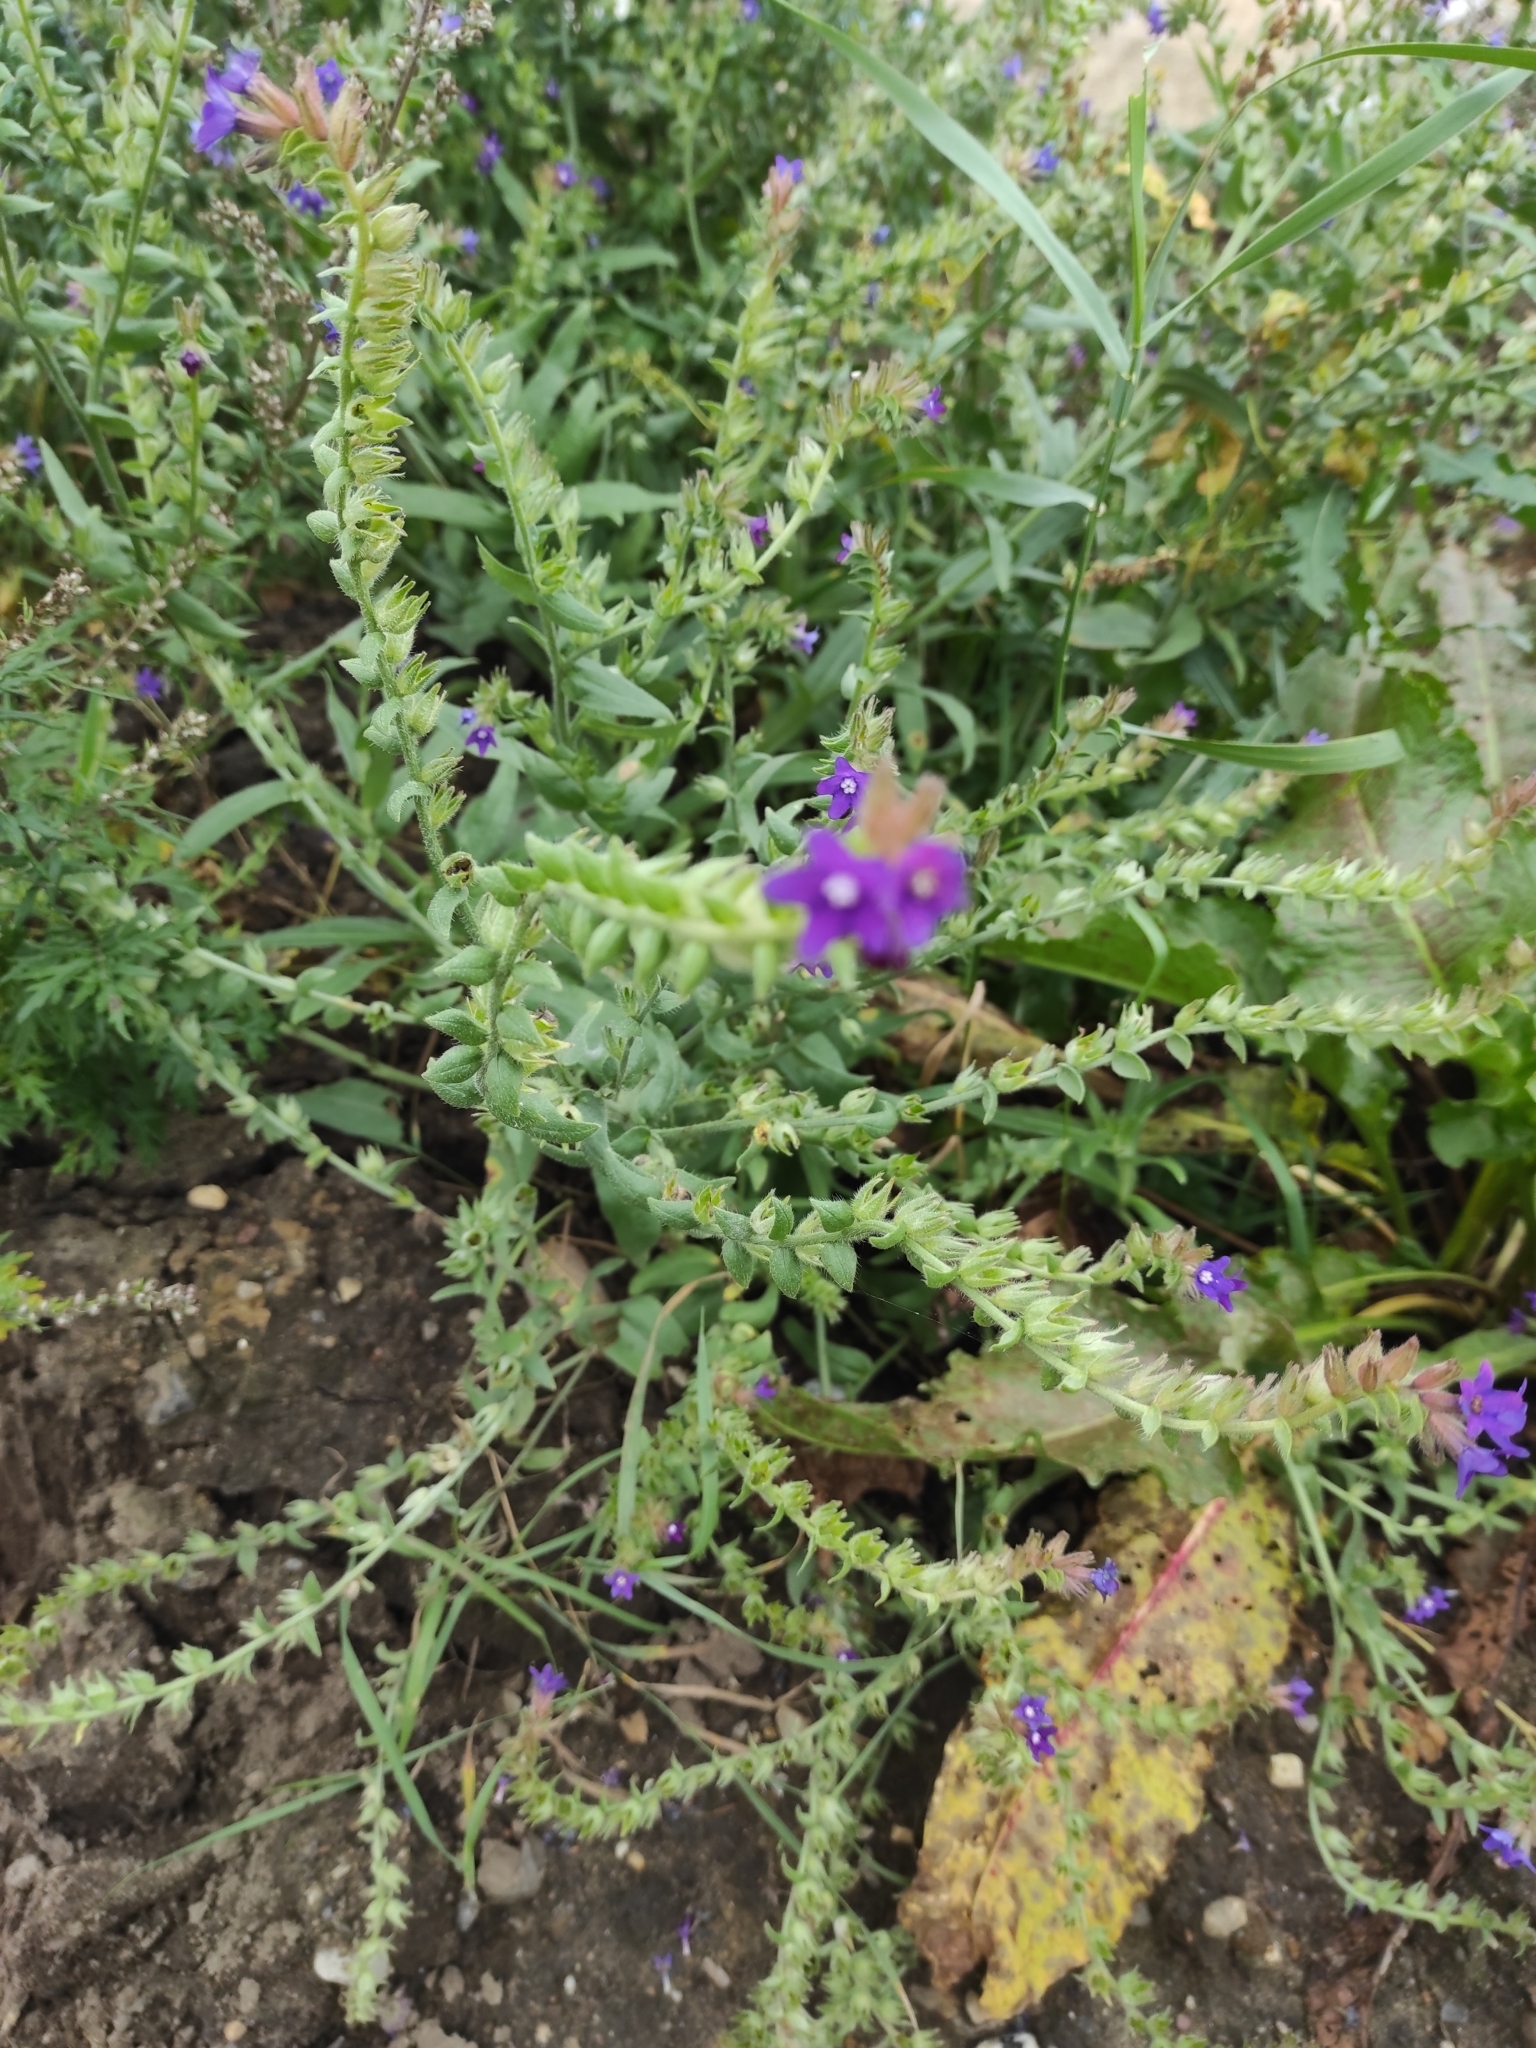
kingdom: Plantae
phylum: Tracheophyta
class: Magnoliopsida
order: Boraginales
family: Boraginaceae
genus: Anchusa
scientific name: Anchusa officinalis
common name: Alkanet
